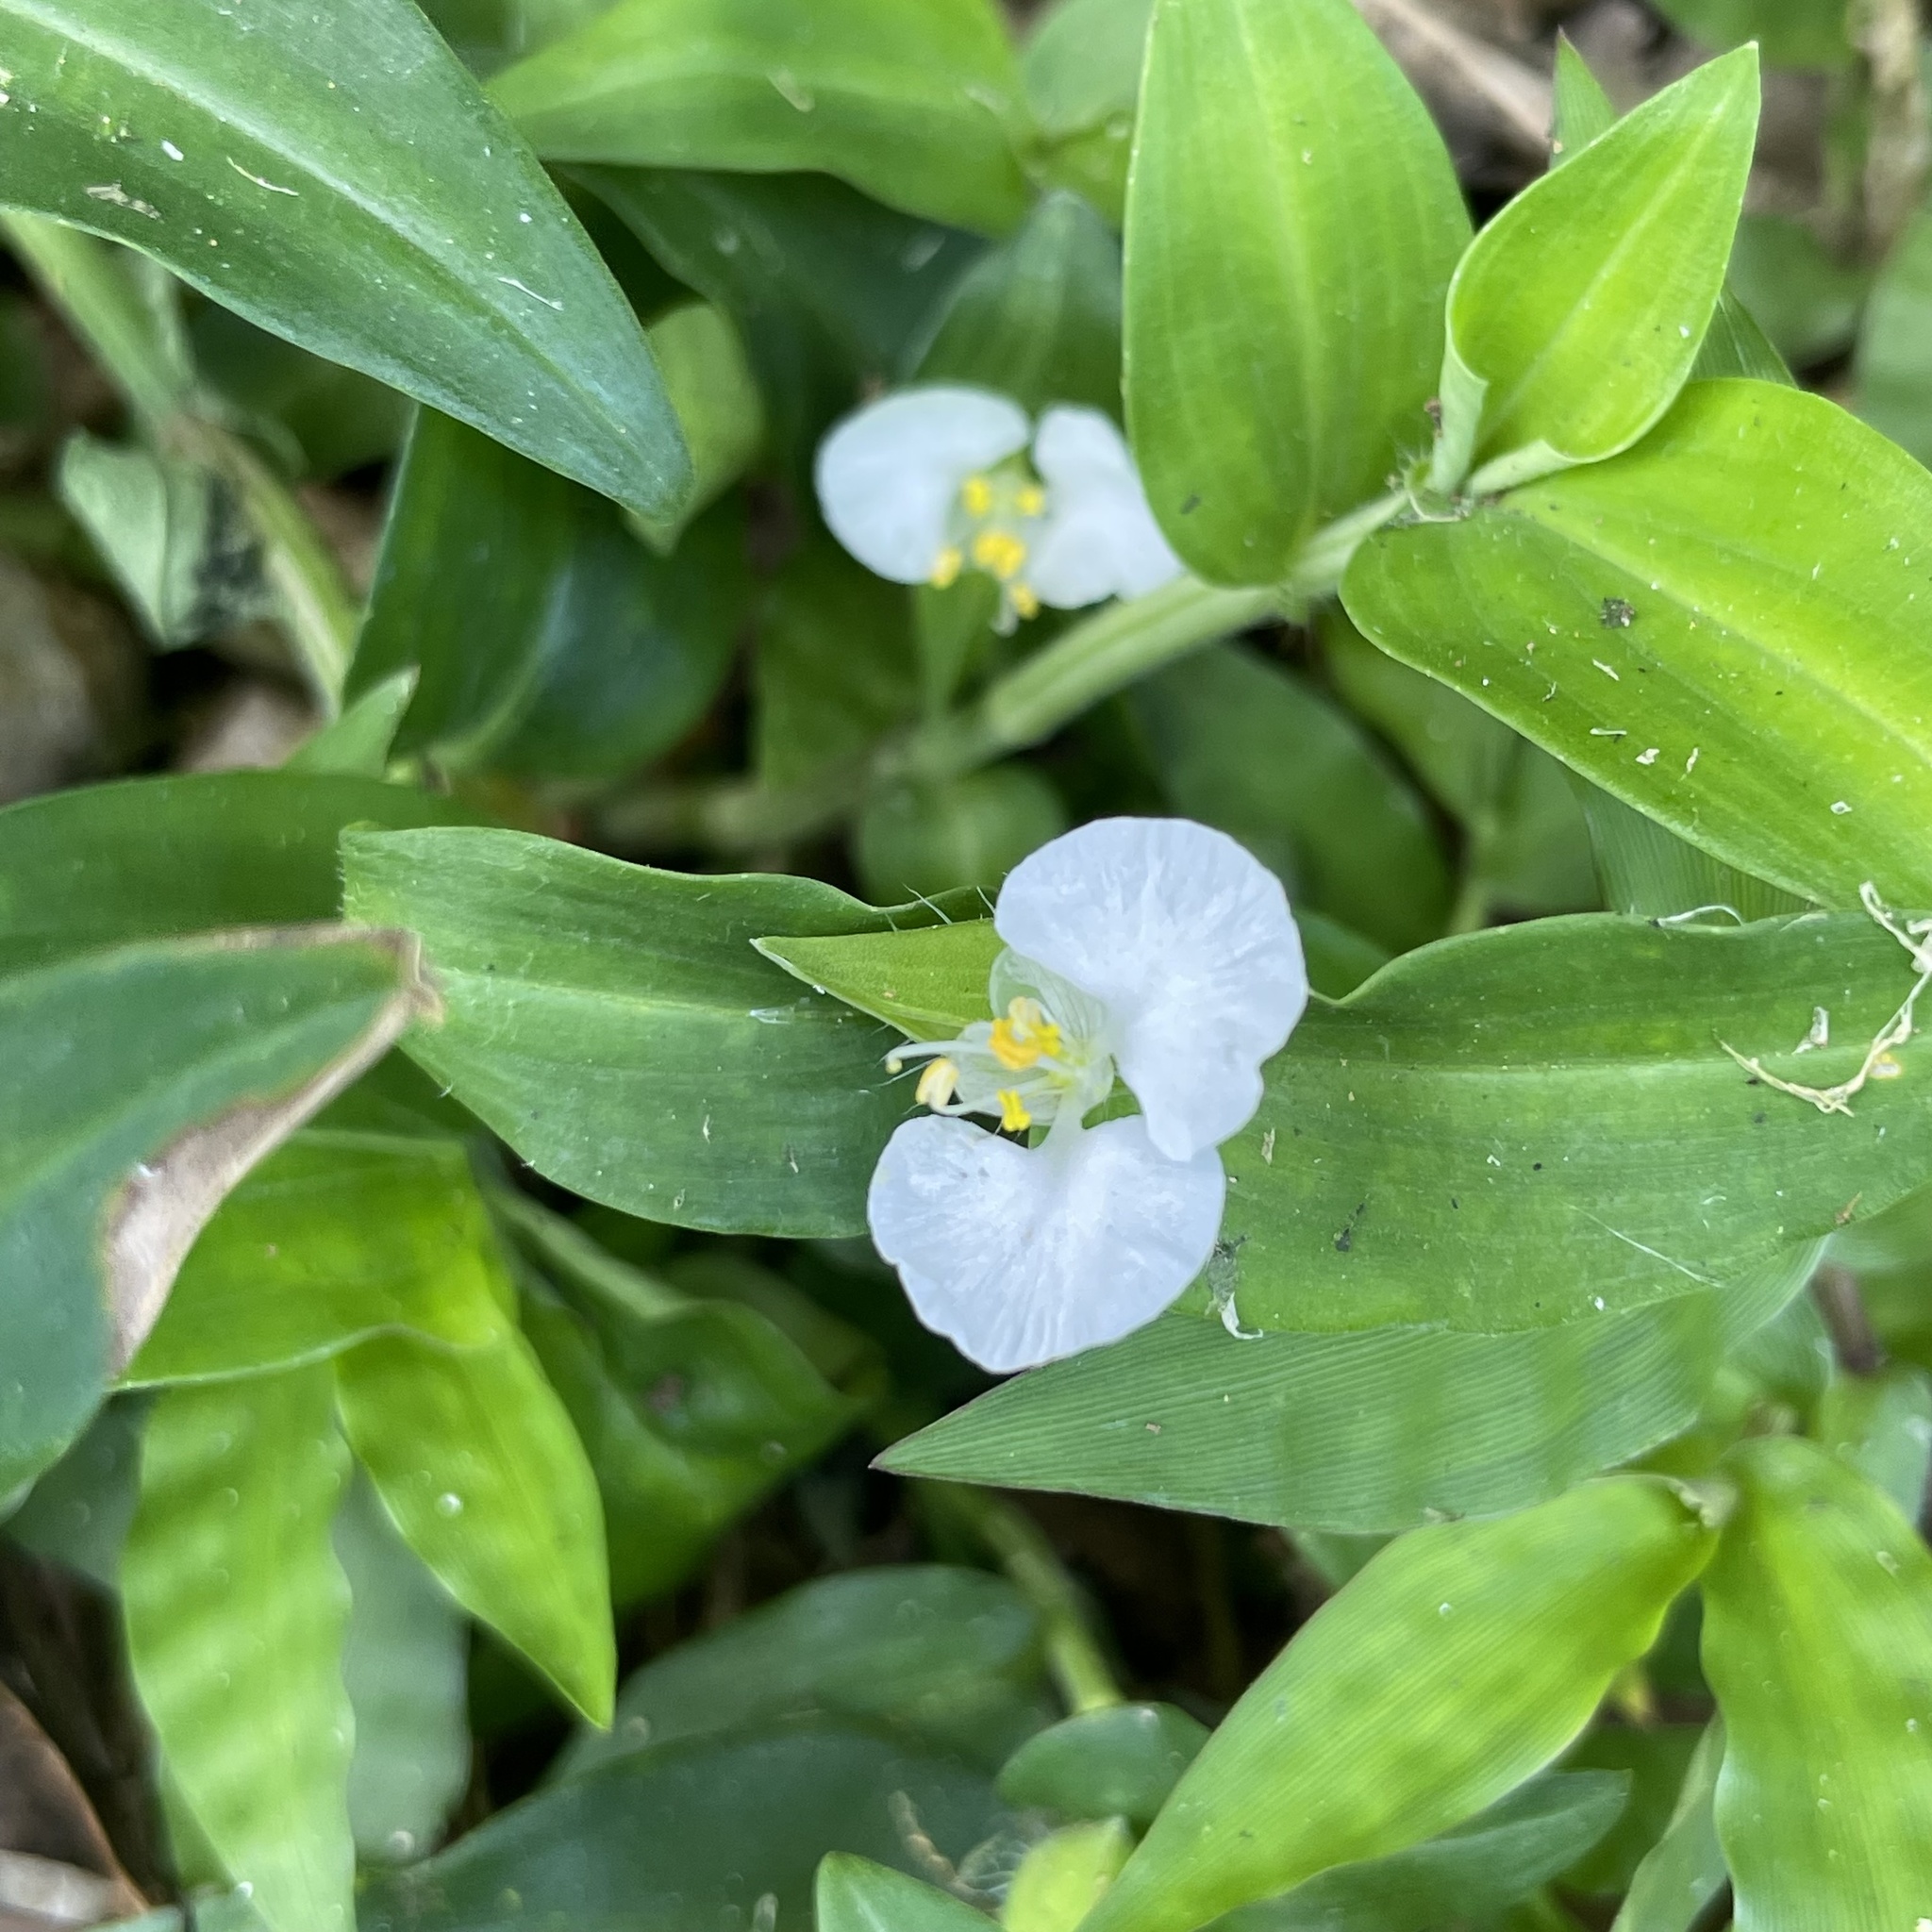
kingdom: Plantae
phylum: Tracheophyta
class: Liliopsida
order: Commelinales
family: Commelinaceae
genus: Commelina
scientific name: Commelina auriculata
